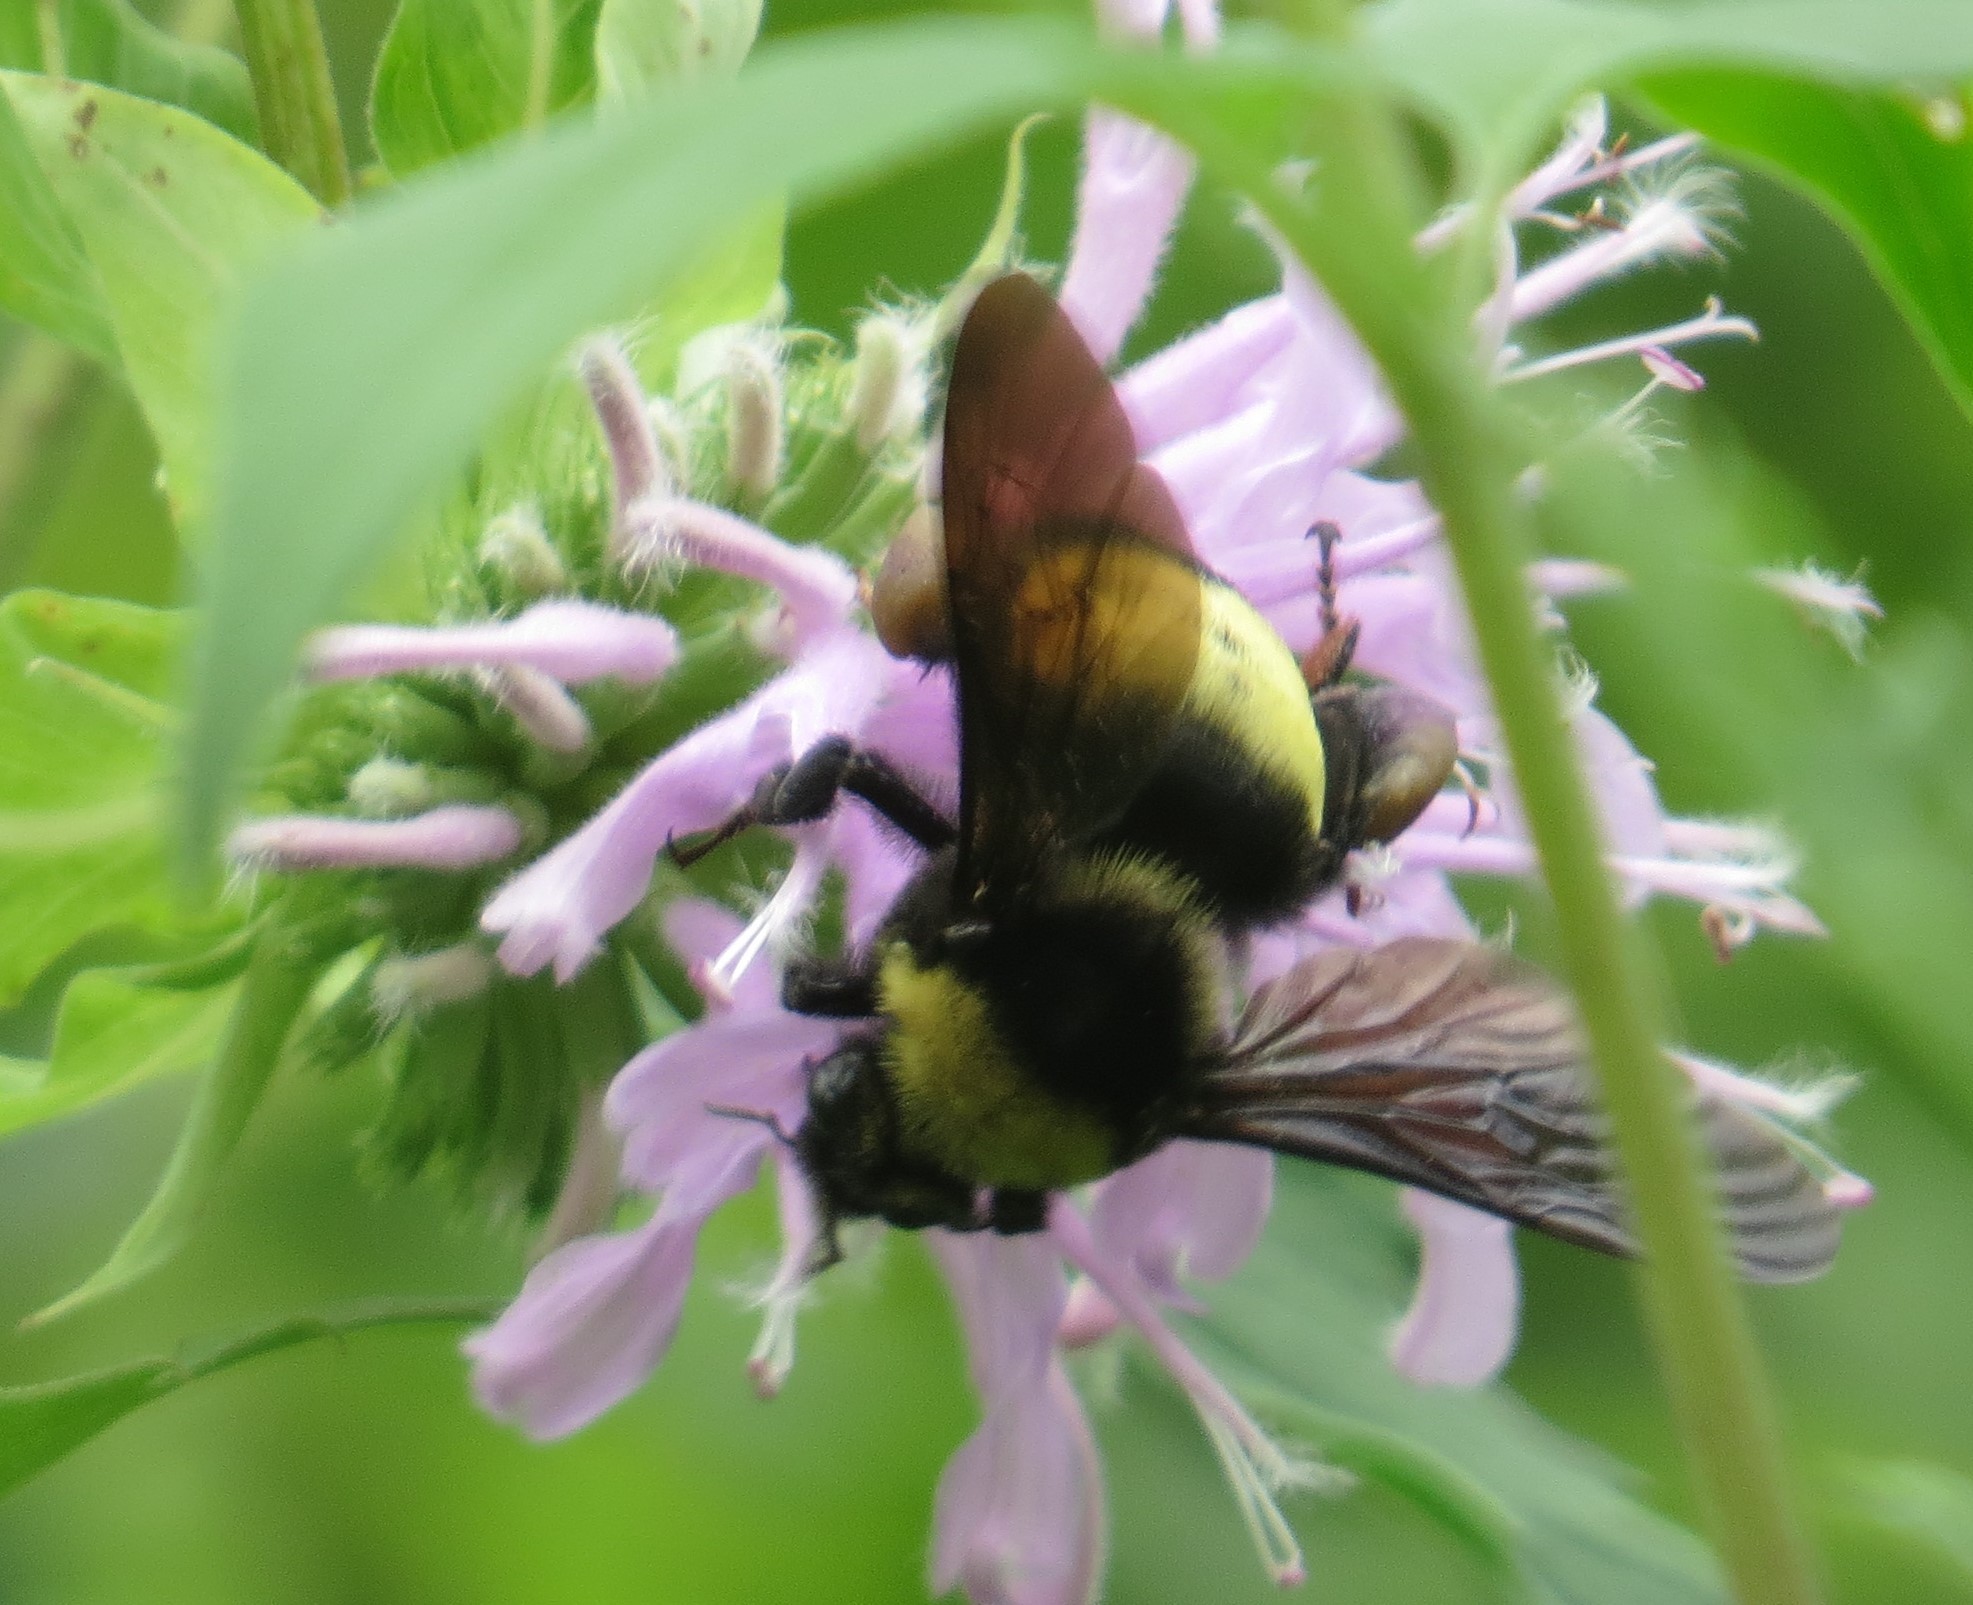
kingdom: Animalia
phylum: Arthropoda
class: Insecta
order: Hymenoptera
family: Apidae
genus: Bombus
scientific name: Bombus auricomus
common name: Black and gold bumble bee
